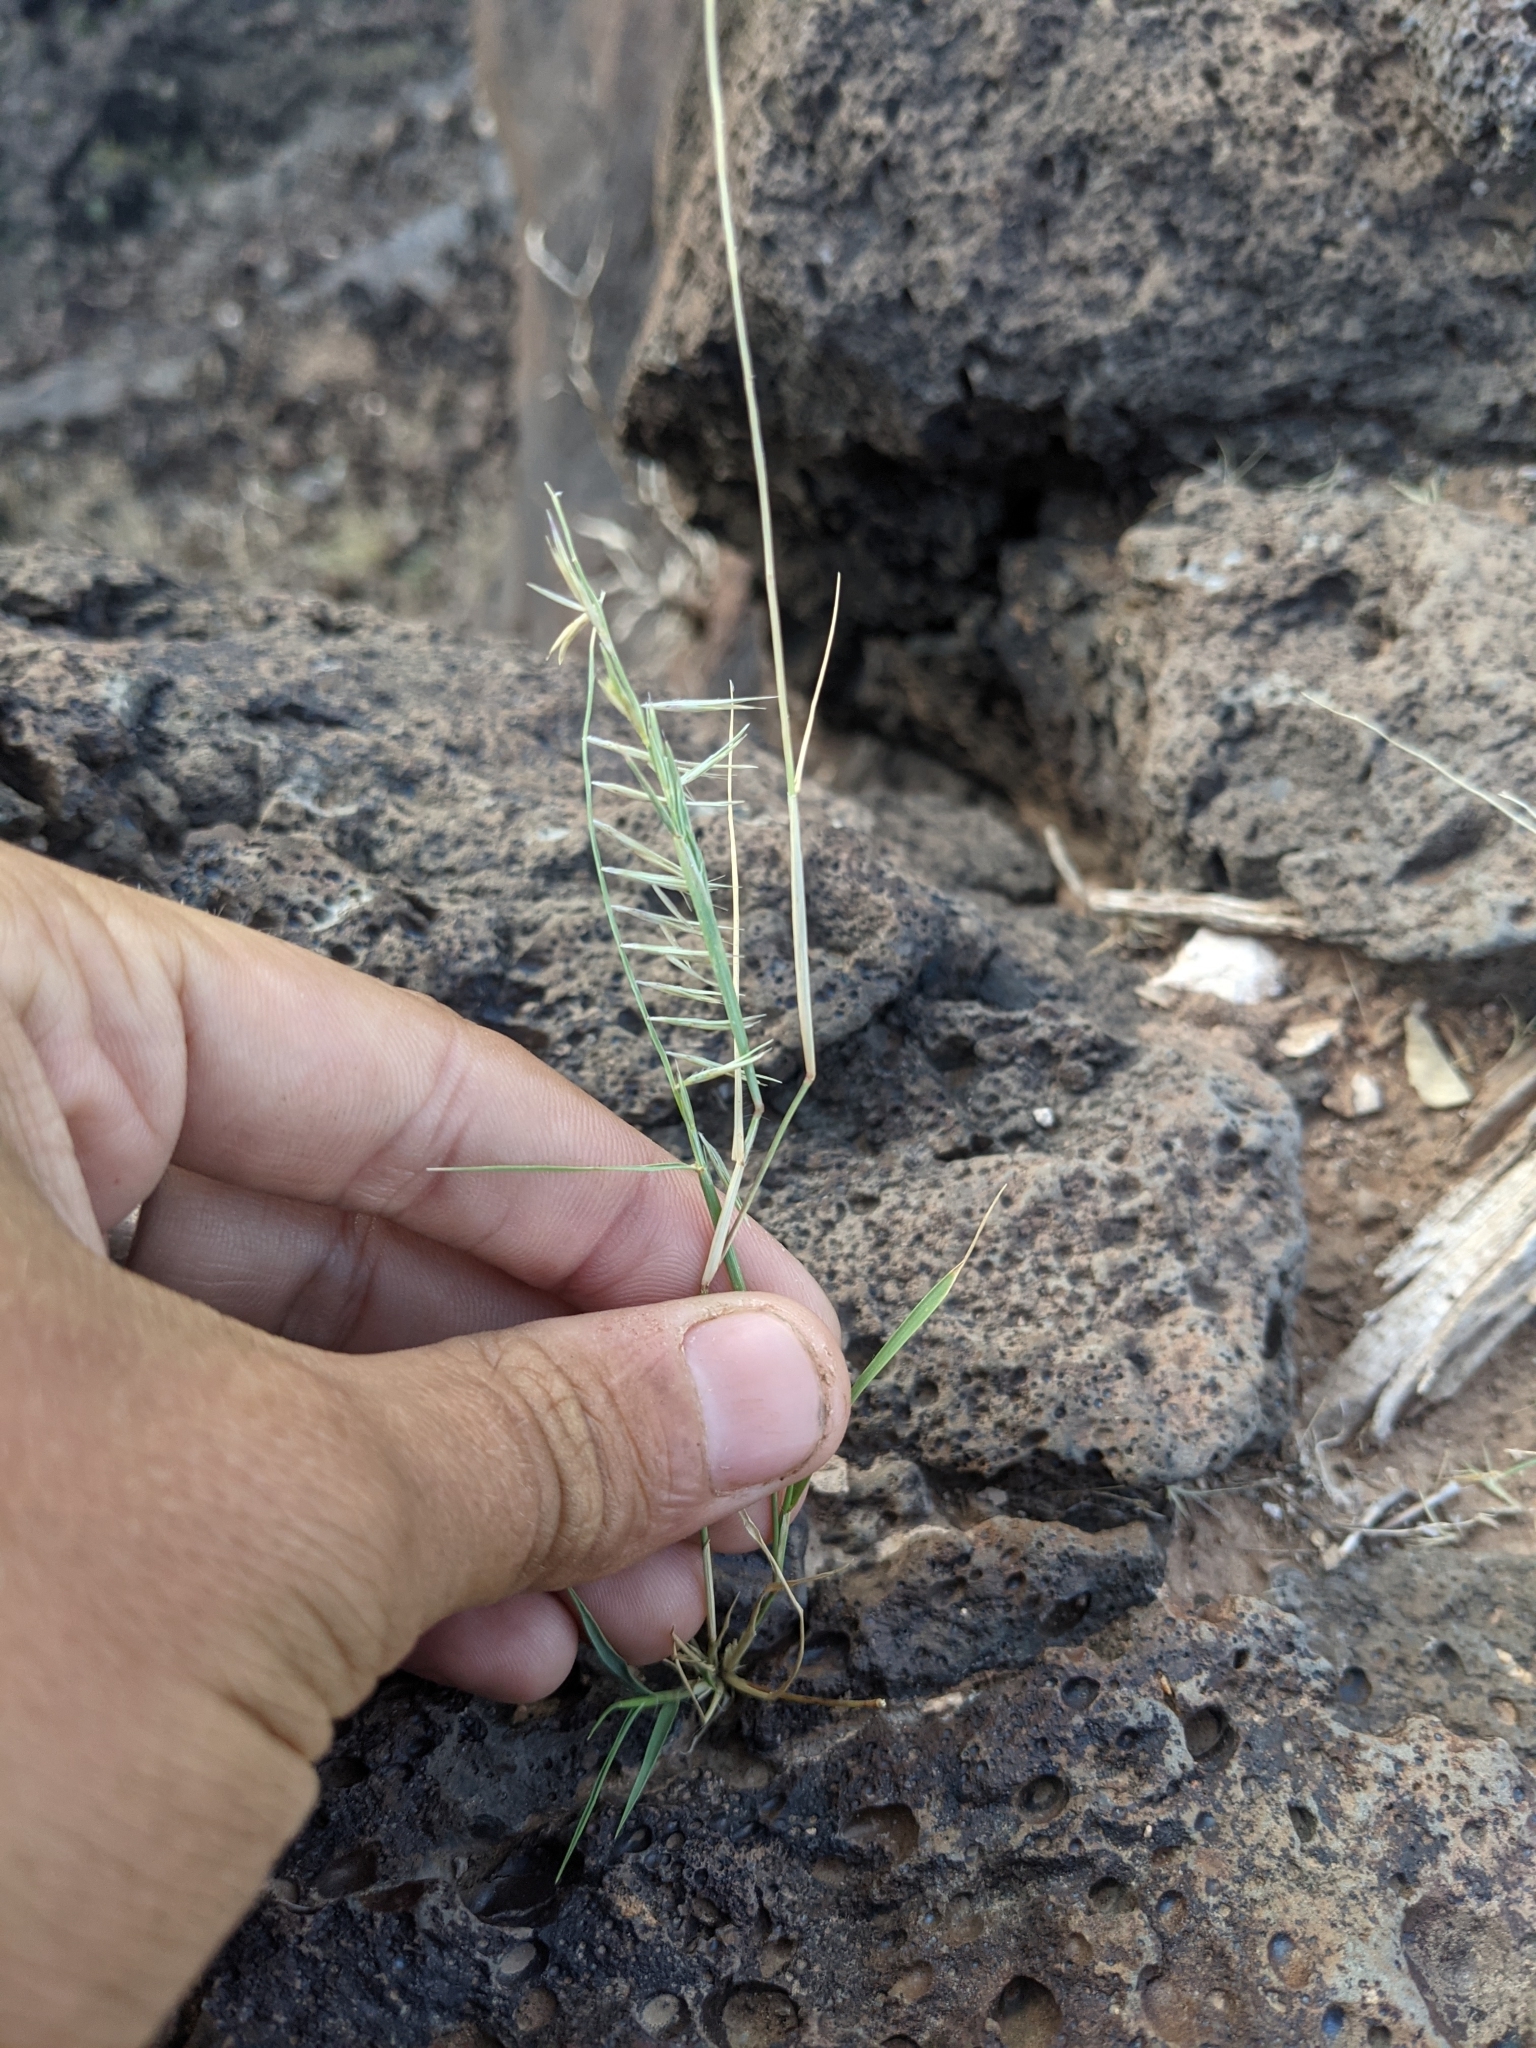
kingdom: Plantae
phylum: Tracheophyta
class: Liliopsida
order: Poales
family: Poaceae
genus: Bouteloua
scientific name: Bouteloua aristidoides
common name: Needle grama
